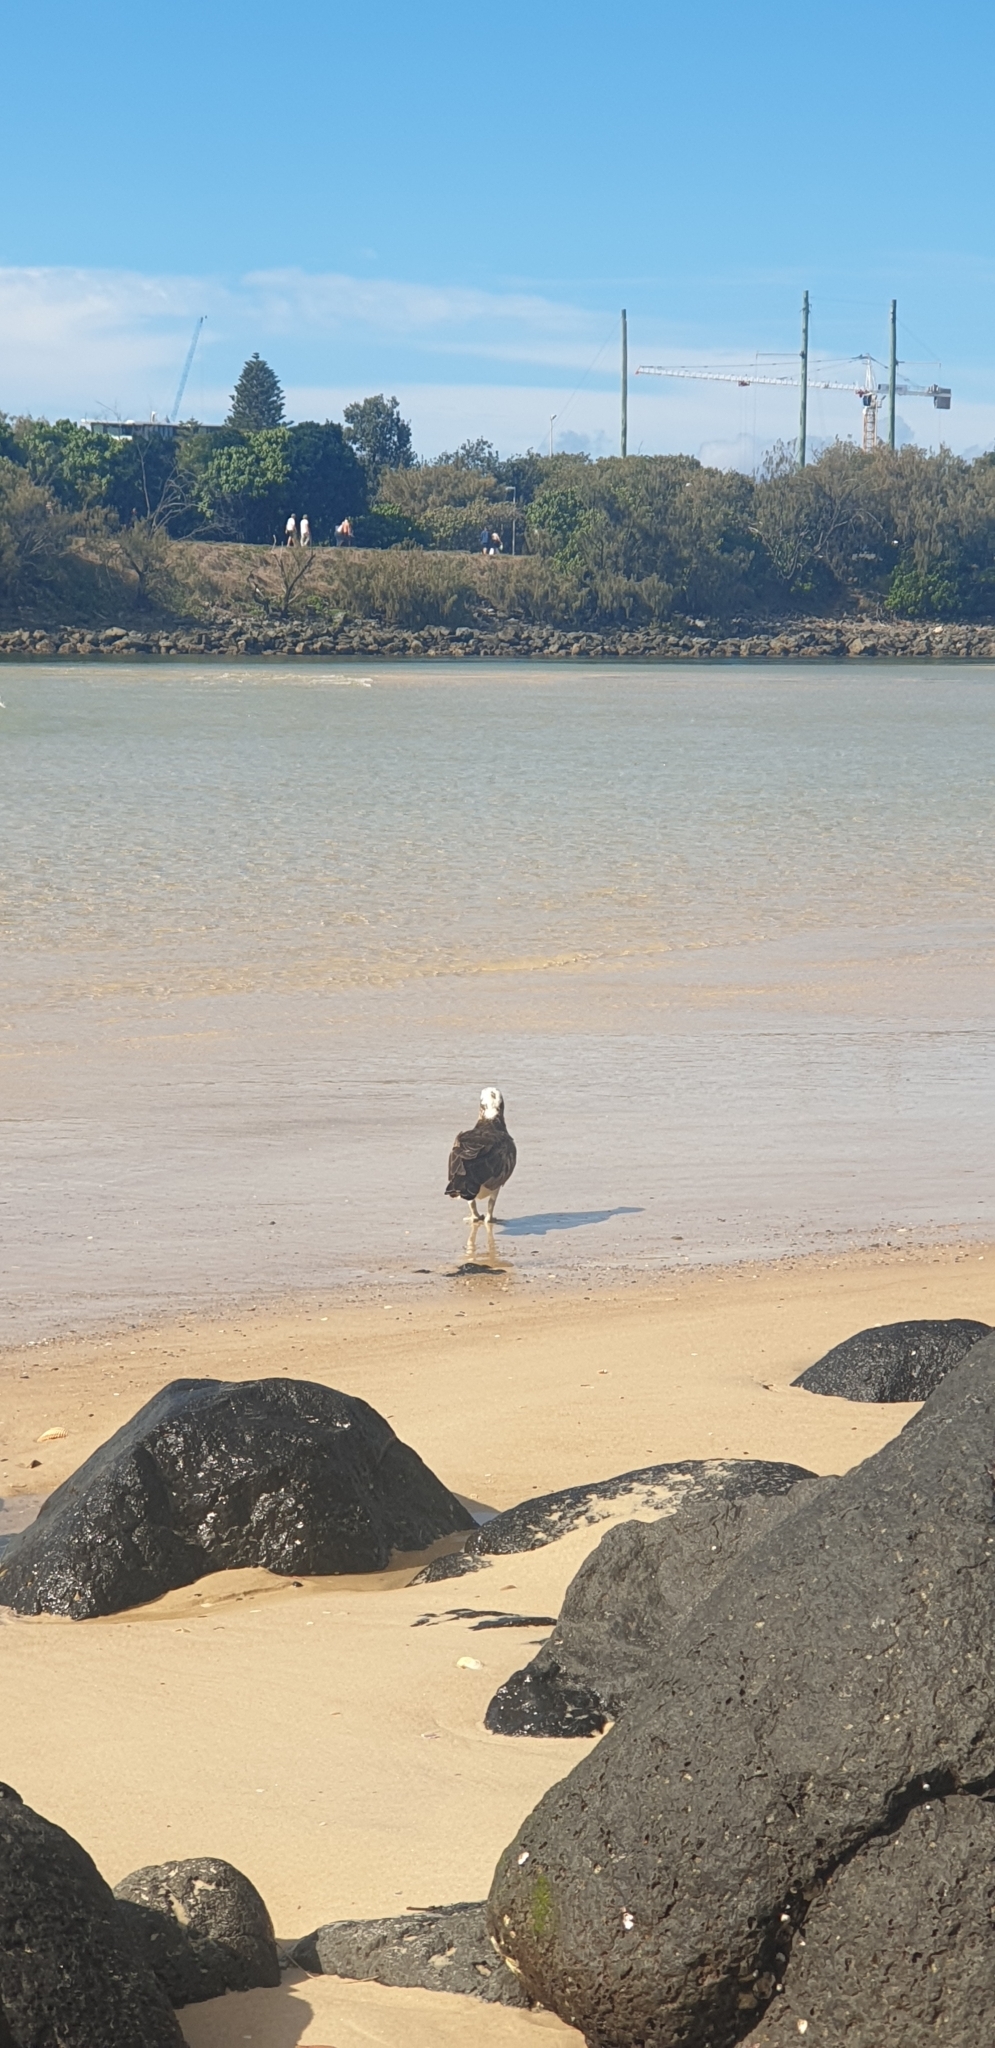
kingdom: Animalia
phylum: Chordata
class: Aves
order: Accipitriformes
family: Pandionidae
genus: Pandion
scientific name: Pandion cristatus
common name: Eastern osprey
